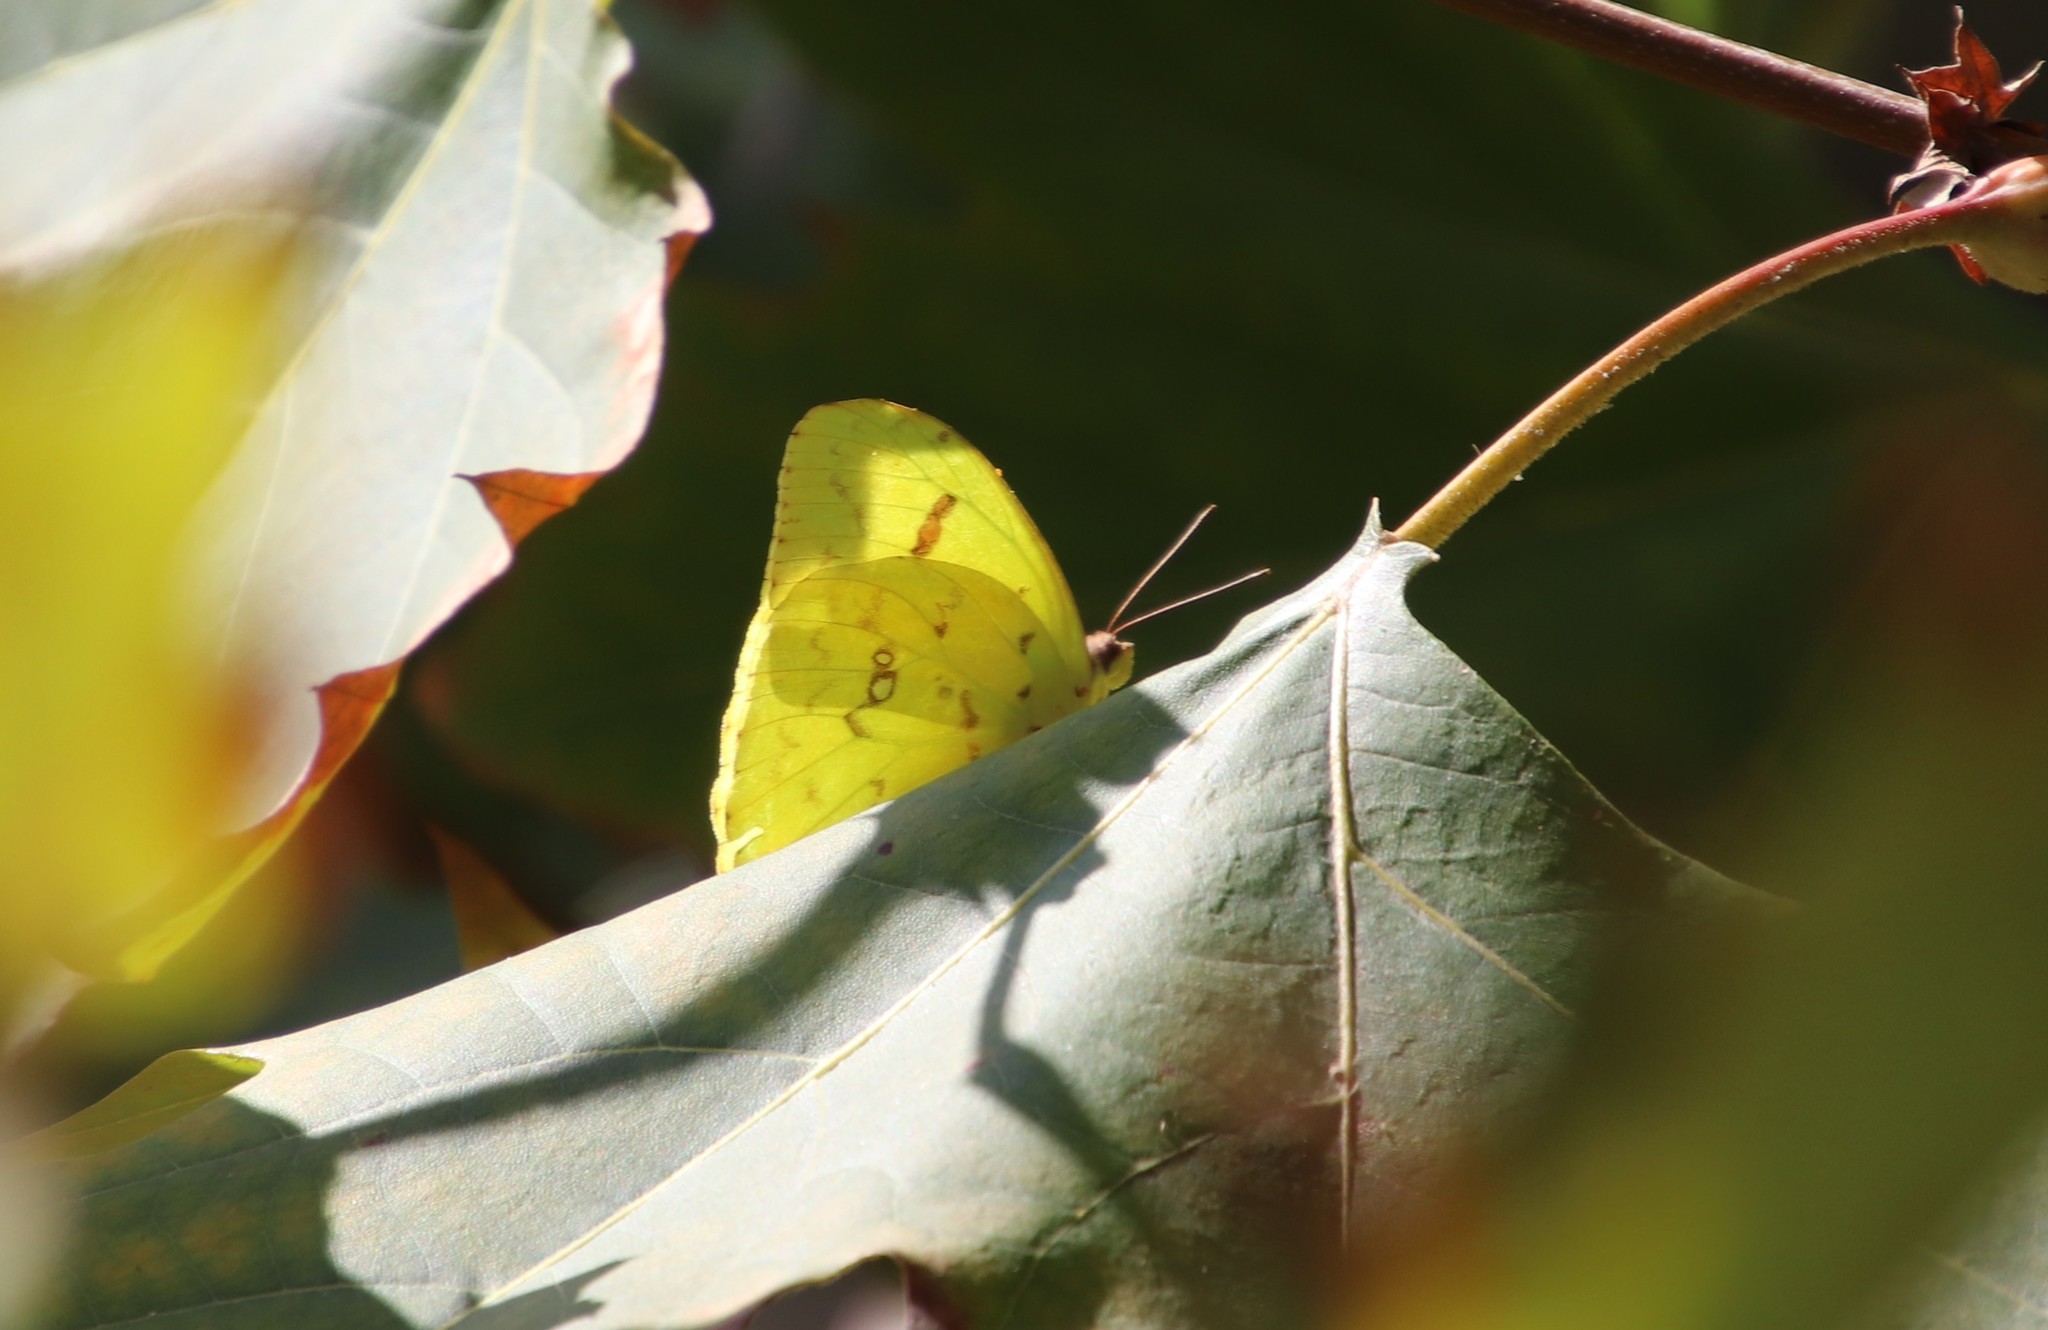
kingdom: Animalia
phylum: Arthropoda
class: Insecta
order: Lepidoptera
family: Pieridae
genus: Phoebis
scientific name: Phoebis sennae
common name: Cloudless sulphur
